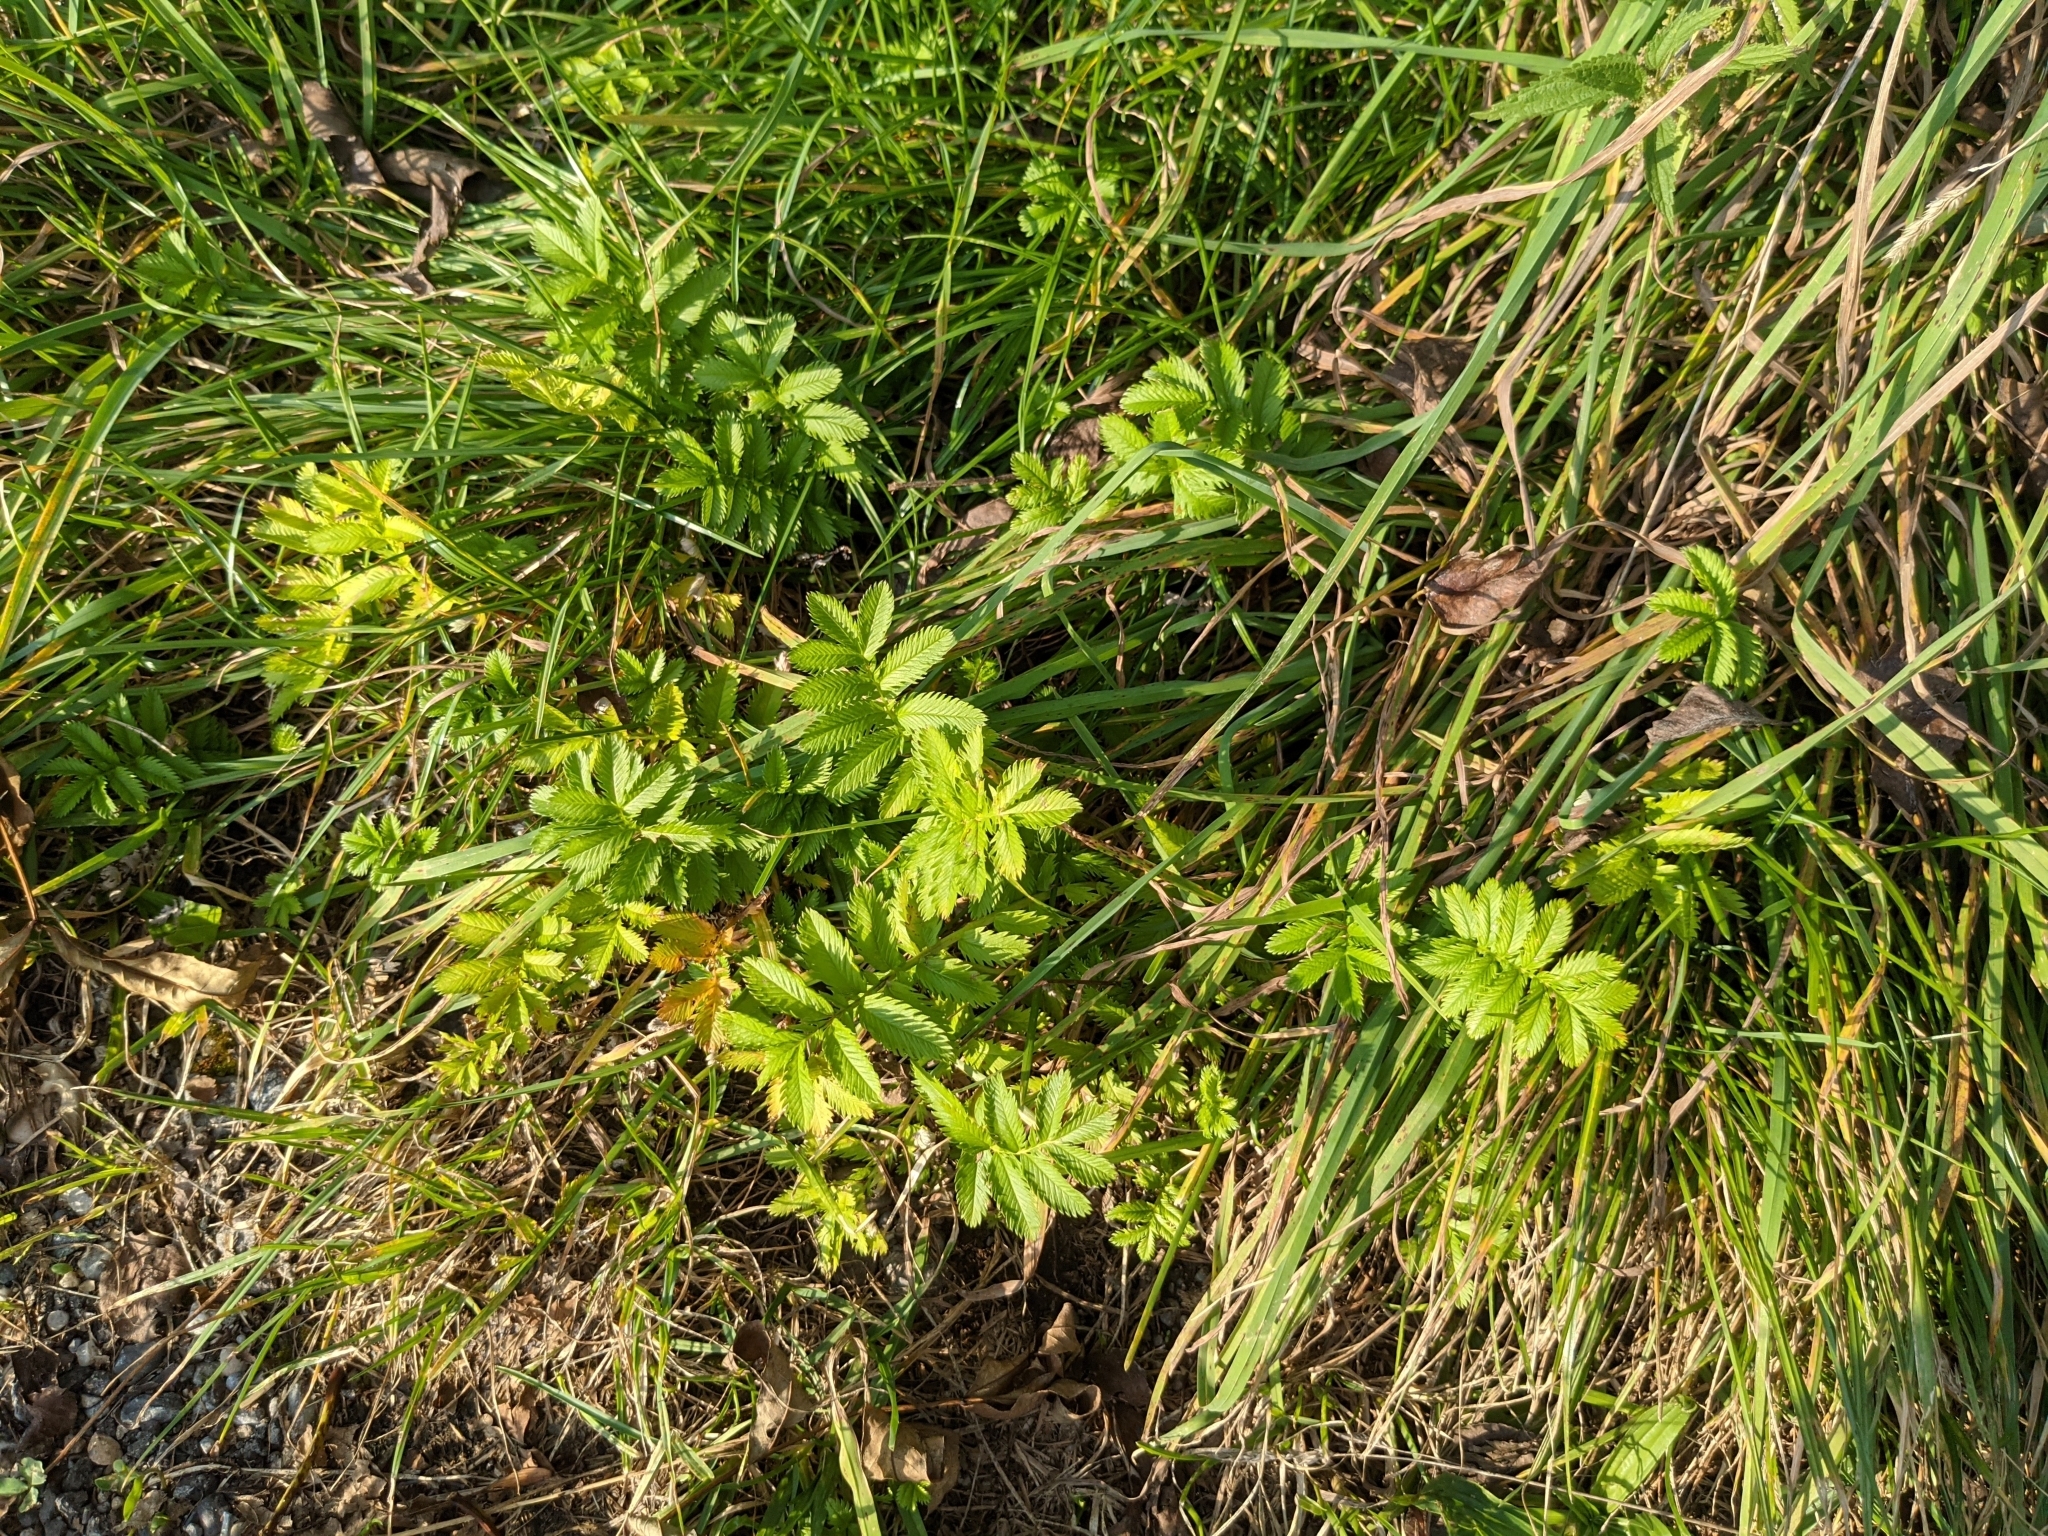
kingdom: Plantae
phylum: Tracheophyta
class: Magnoliopsida
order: Rosales
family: Rosaceae
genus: Argentina
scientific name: Argentina anserina
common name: Common silverweed
